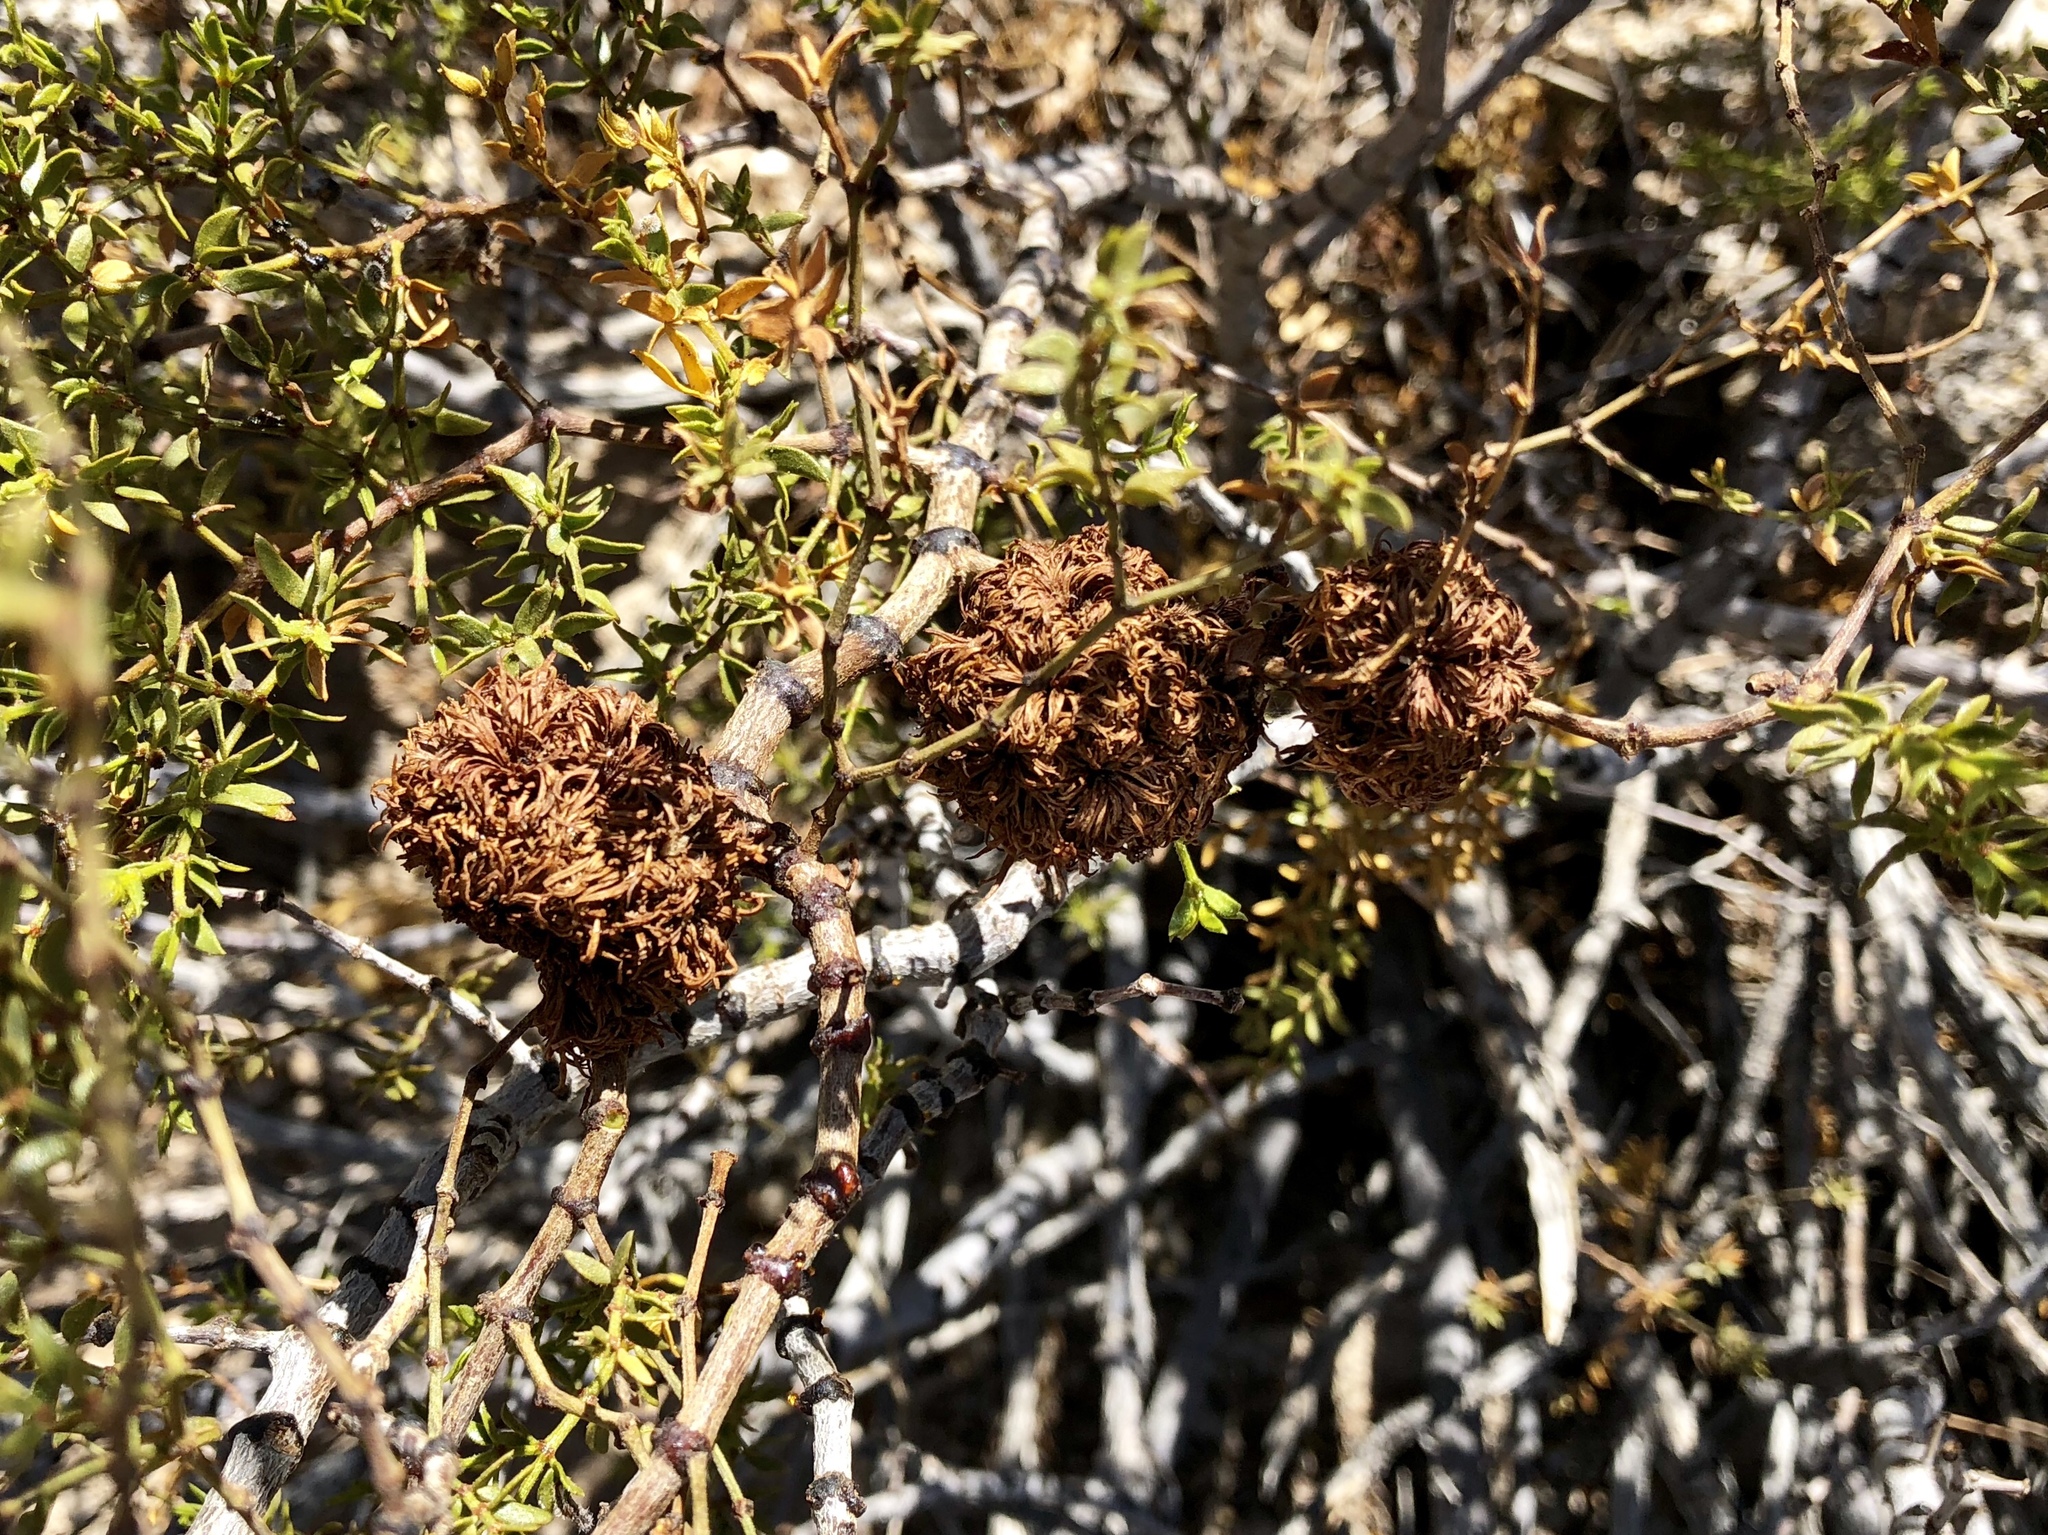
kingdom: Animalia
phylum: Arthropoda
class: Insecta
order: Diptera
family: Cecidomyiidae
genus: Asphondylia
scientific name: Asphondylia auripila
